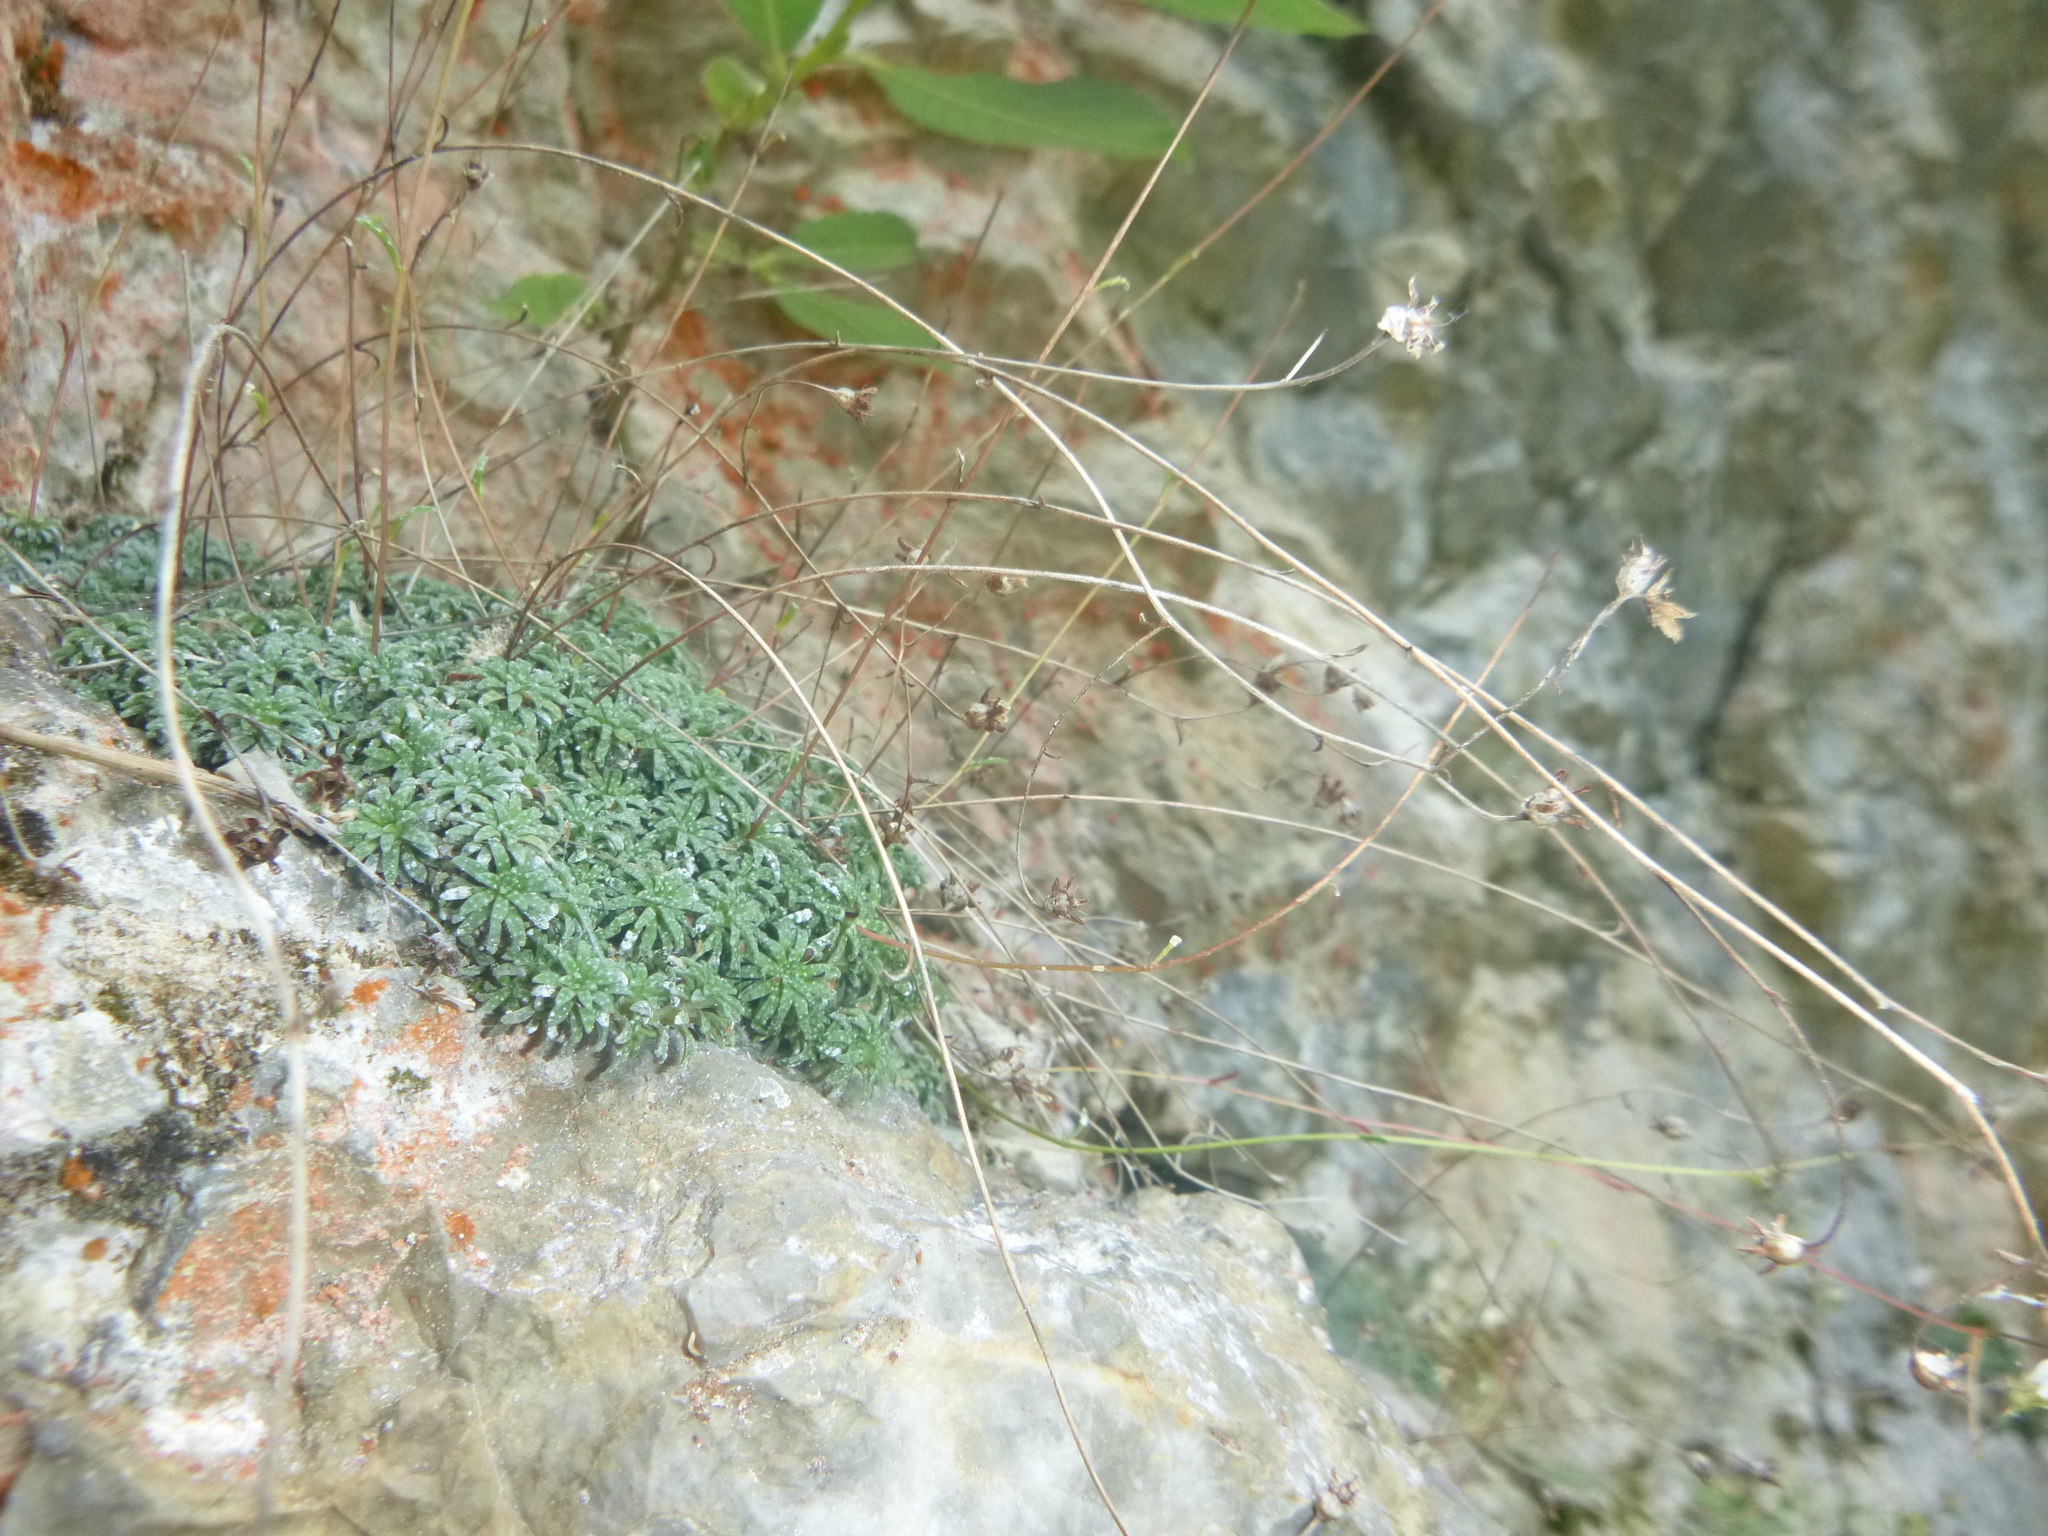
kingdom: Plantae
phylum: Tracheophyta
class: Magnoliopsida
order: Saxifragales
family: Saxifragaceae
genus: Saxifraga
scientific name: Saxifraga caesia
